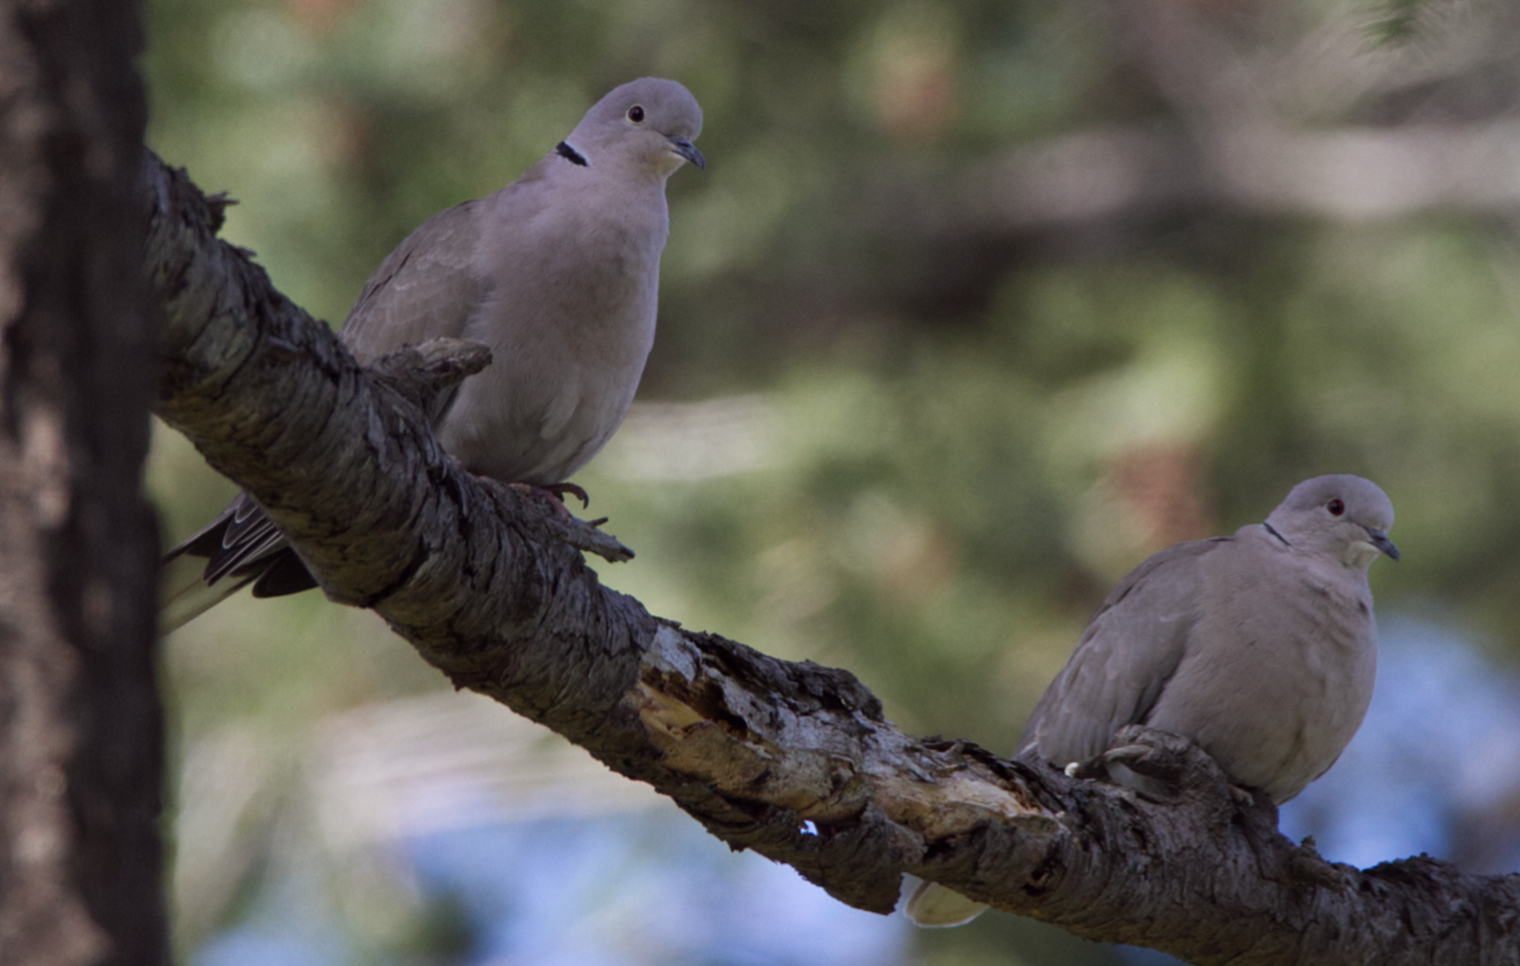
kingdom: Animalia
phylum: Chordata
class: Aves
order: Columbiformes
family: Columbidae
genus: Streptopelia
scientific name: Streptopelia decaocto
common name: Eurasian collared dove
